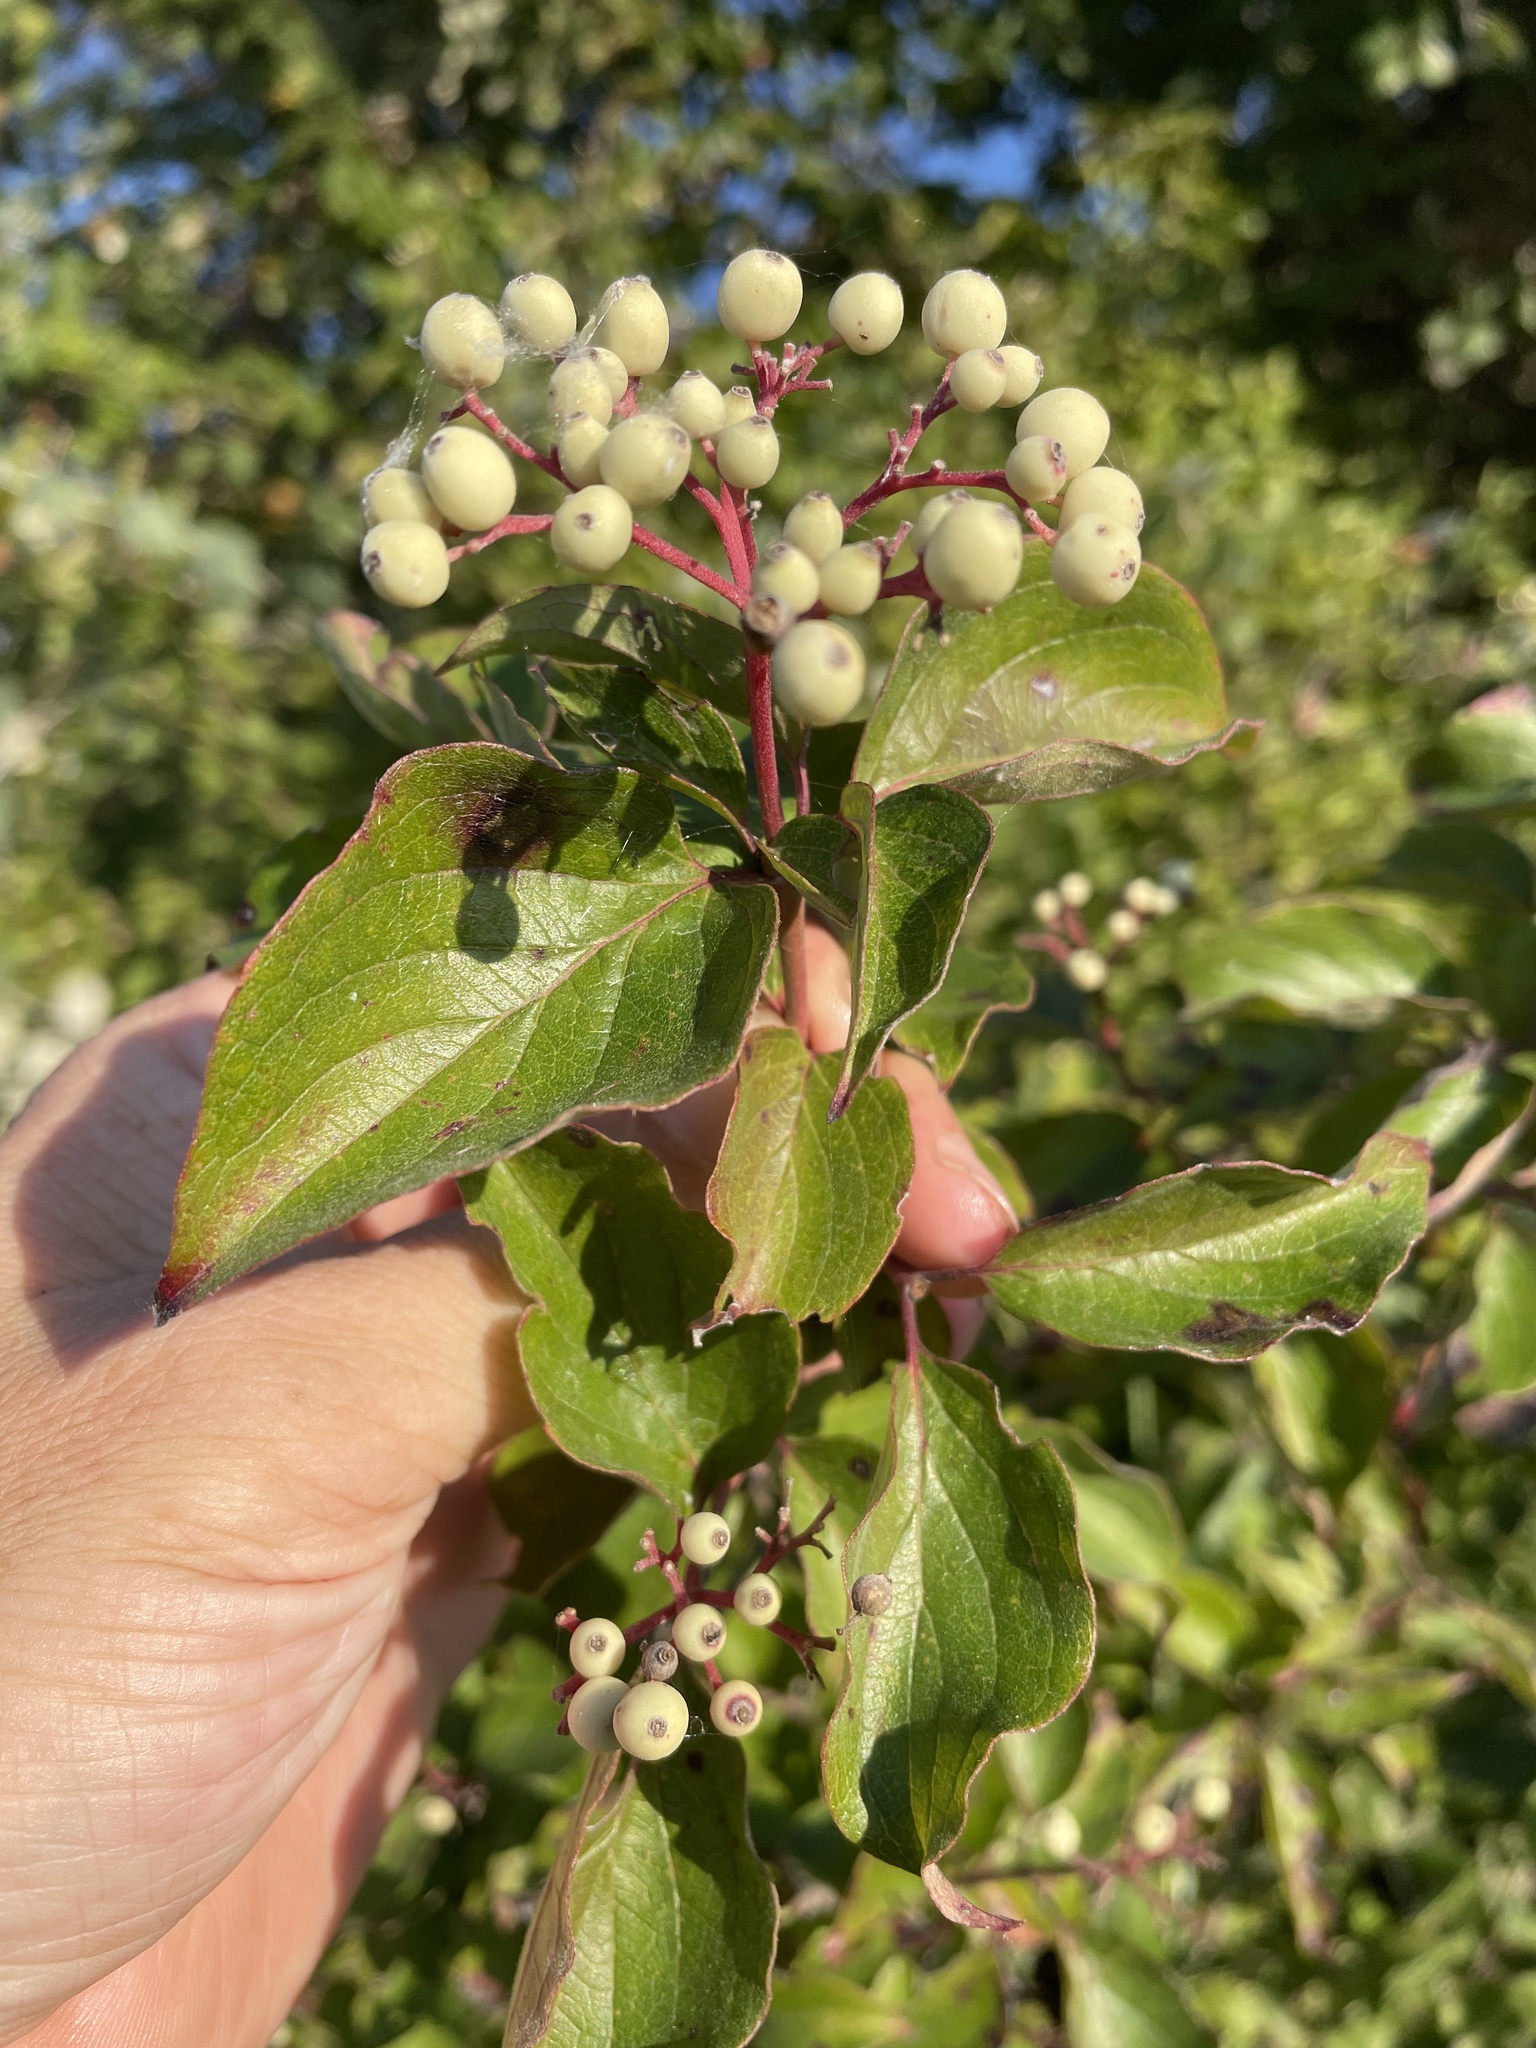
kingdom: Plantae
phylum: Tracheophyta
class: Magnoliopsida
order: Cornales
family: Cornaceae
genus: Cornus
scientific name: Cornus drummondii
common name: Rough-leaf dogwood
